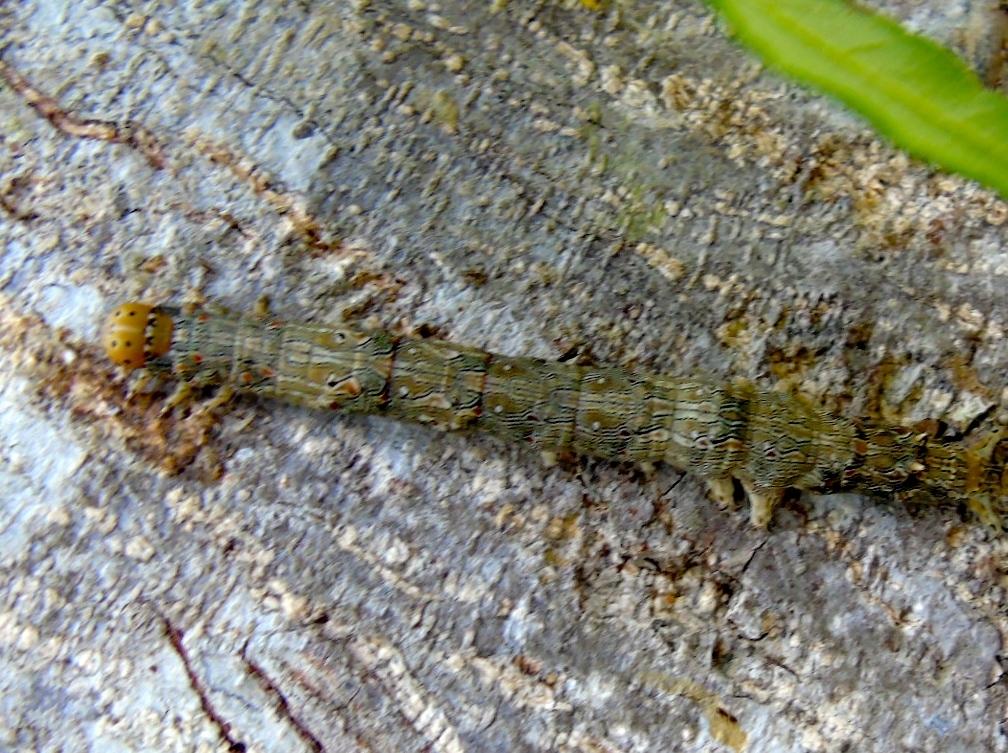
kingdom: Animalia
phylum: Arthropoda
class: Insecta
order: Lepidoptera
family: Erebidae
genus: Zale
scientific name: Zale
